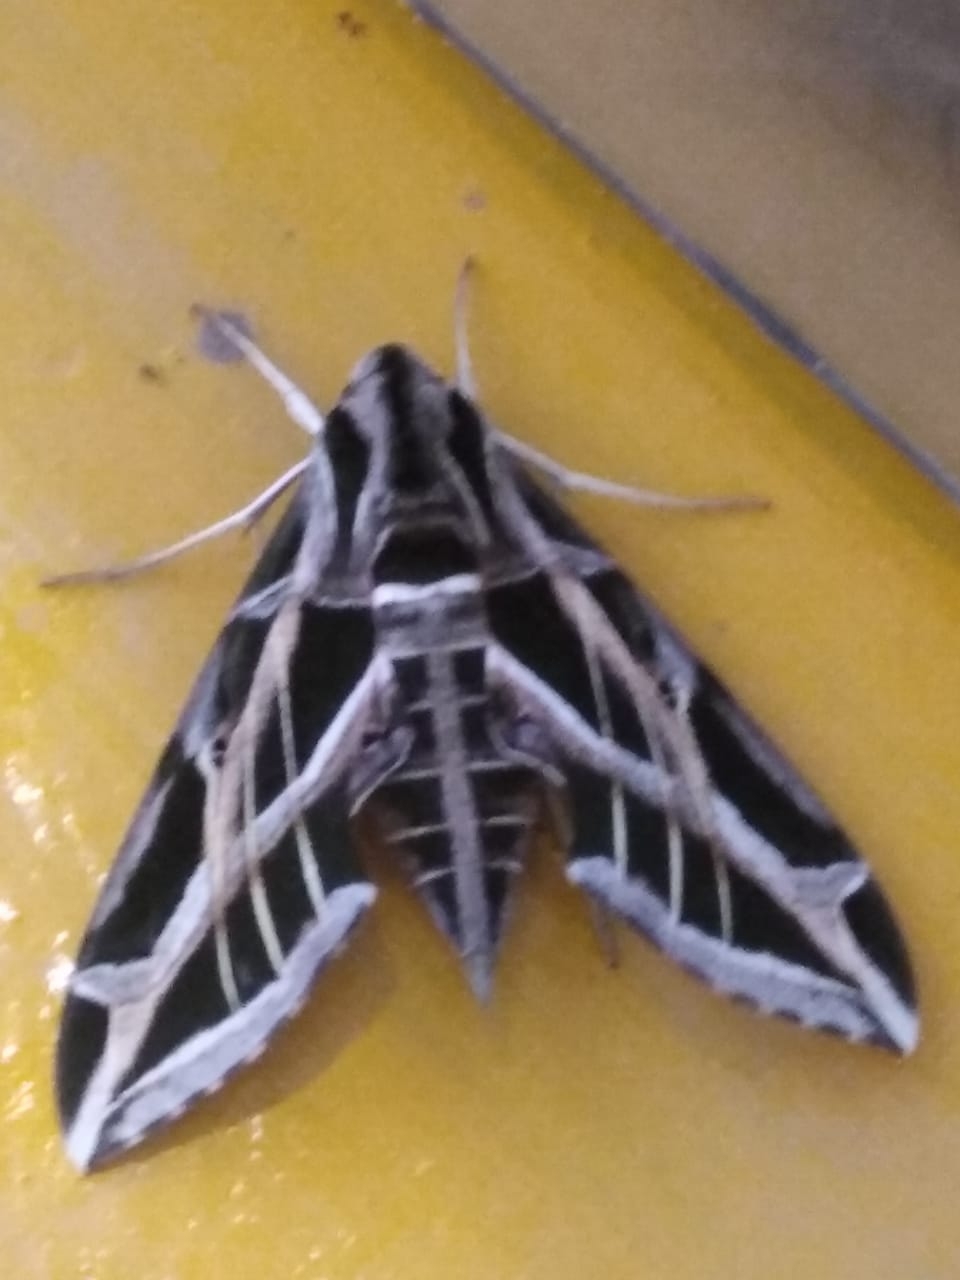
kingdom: Animalia
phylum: Arthropoda
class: Insecta
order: Lepidoptera
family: Sphingidae
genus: Eumorpha
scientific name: Eumorpha vitis
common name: Vine sphinx
